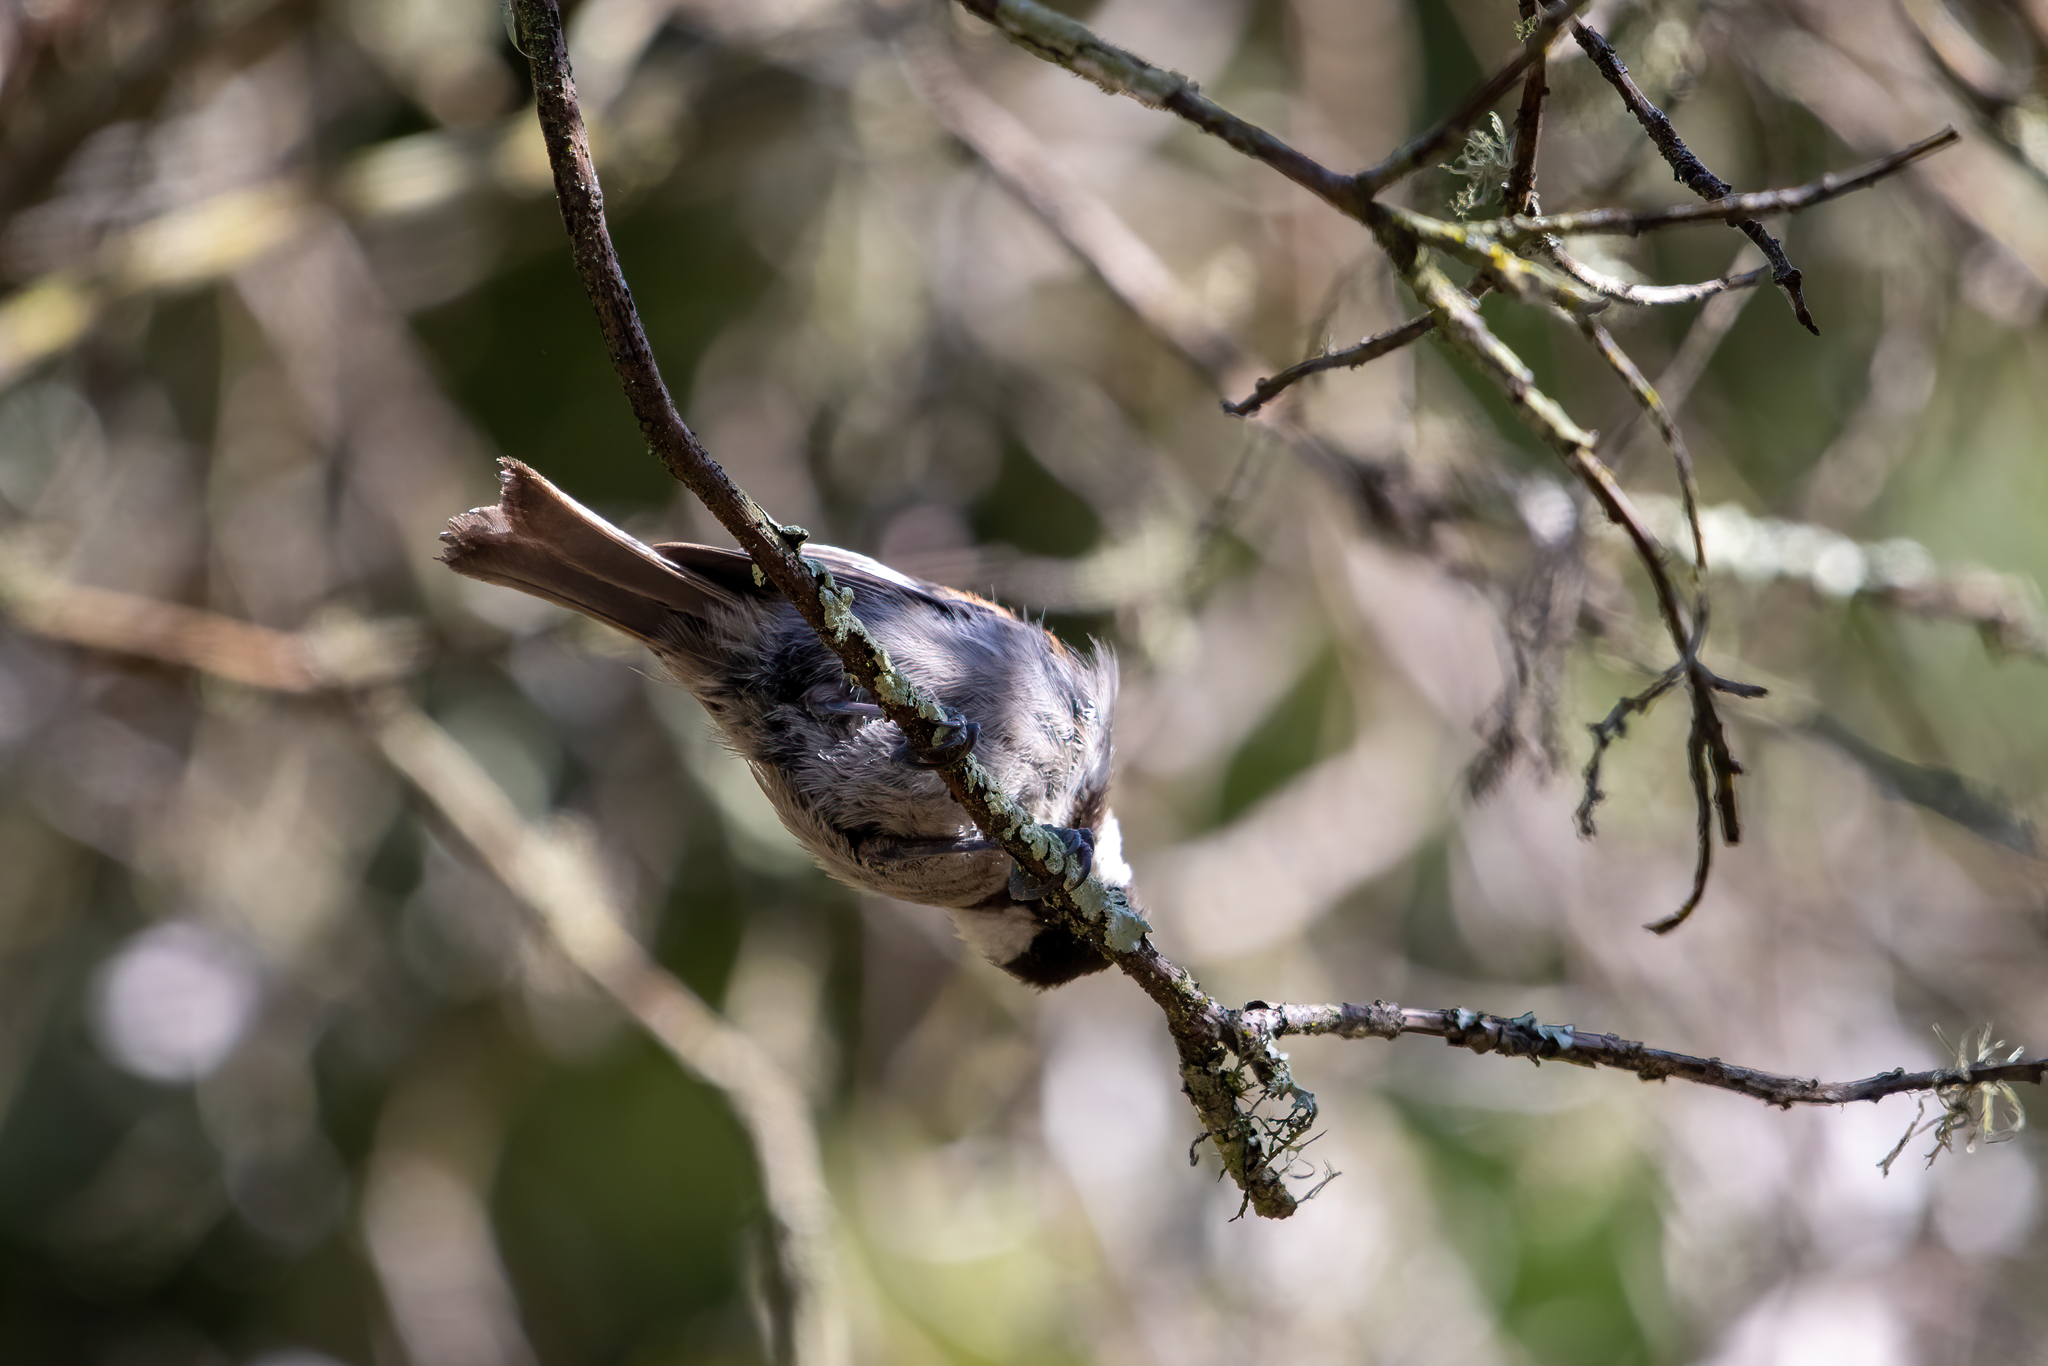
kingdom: Animalia
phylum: Chordata
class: Aves
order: Passeriformes
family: Paridae
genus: Poecile
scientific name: Poecile rufescens
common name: Chestnut-backed chickadee
